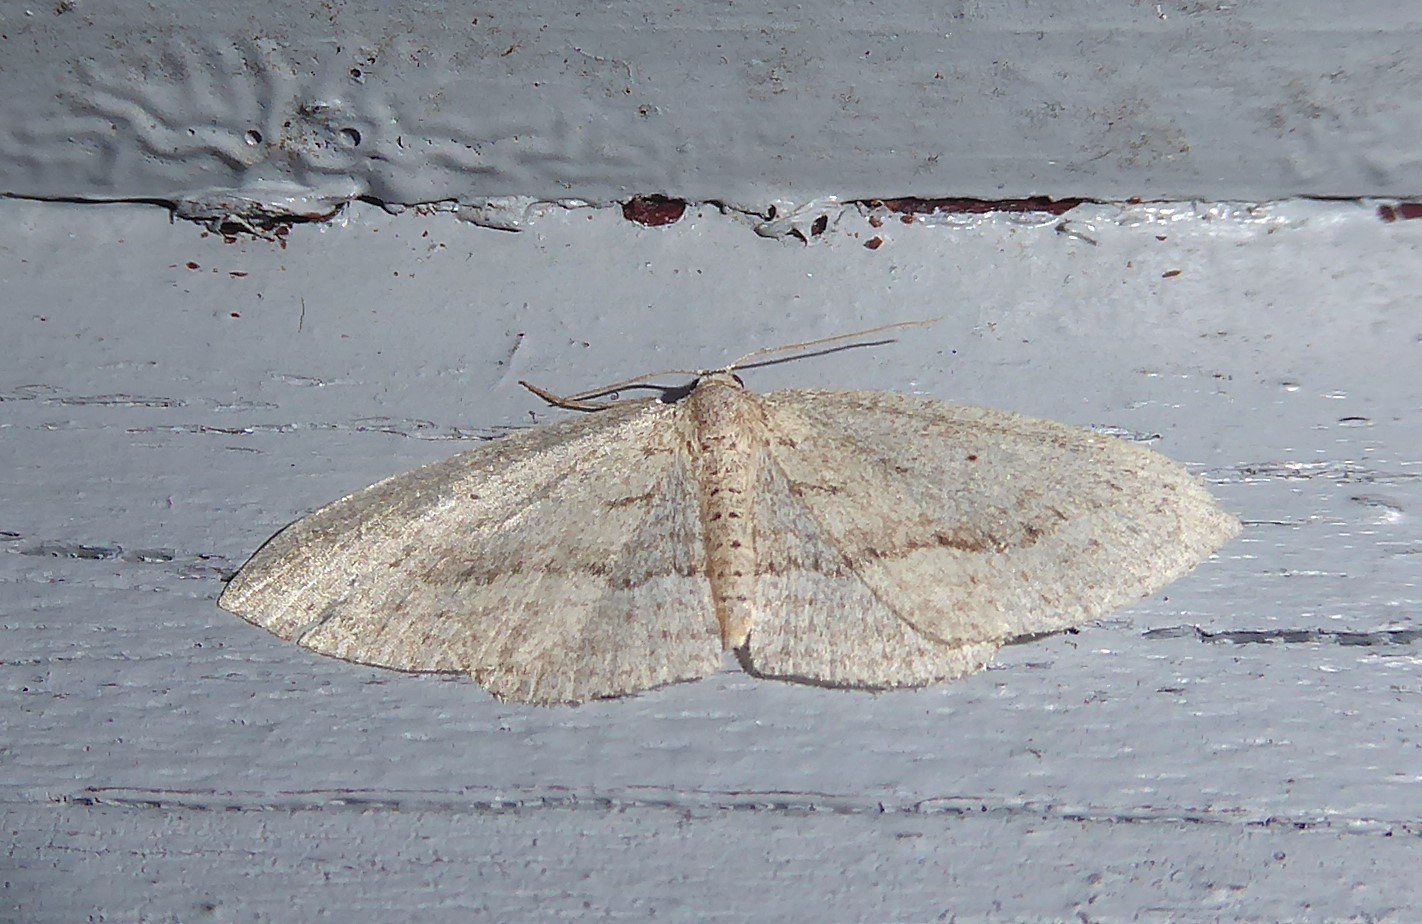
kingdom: Animalia
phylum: Arthropoda
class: Insecta
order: Lepidoptera
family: Geometridae
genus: Poecilasthena
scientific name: Poecilasthena schistaria
